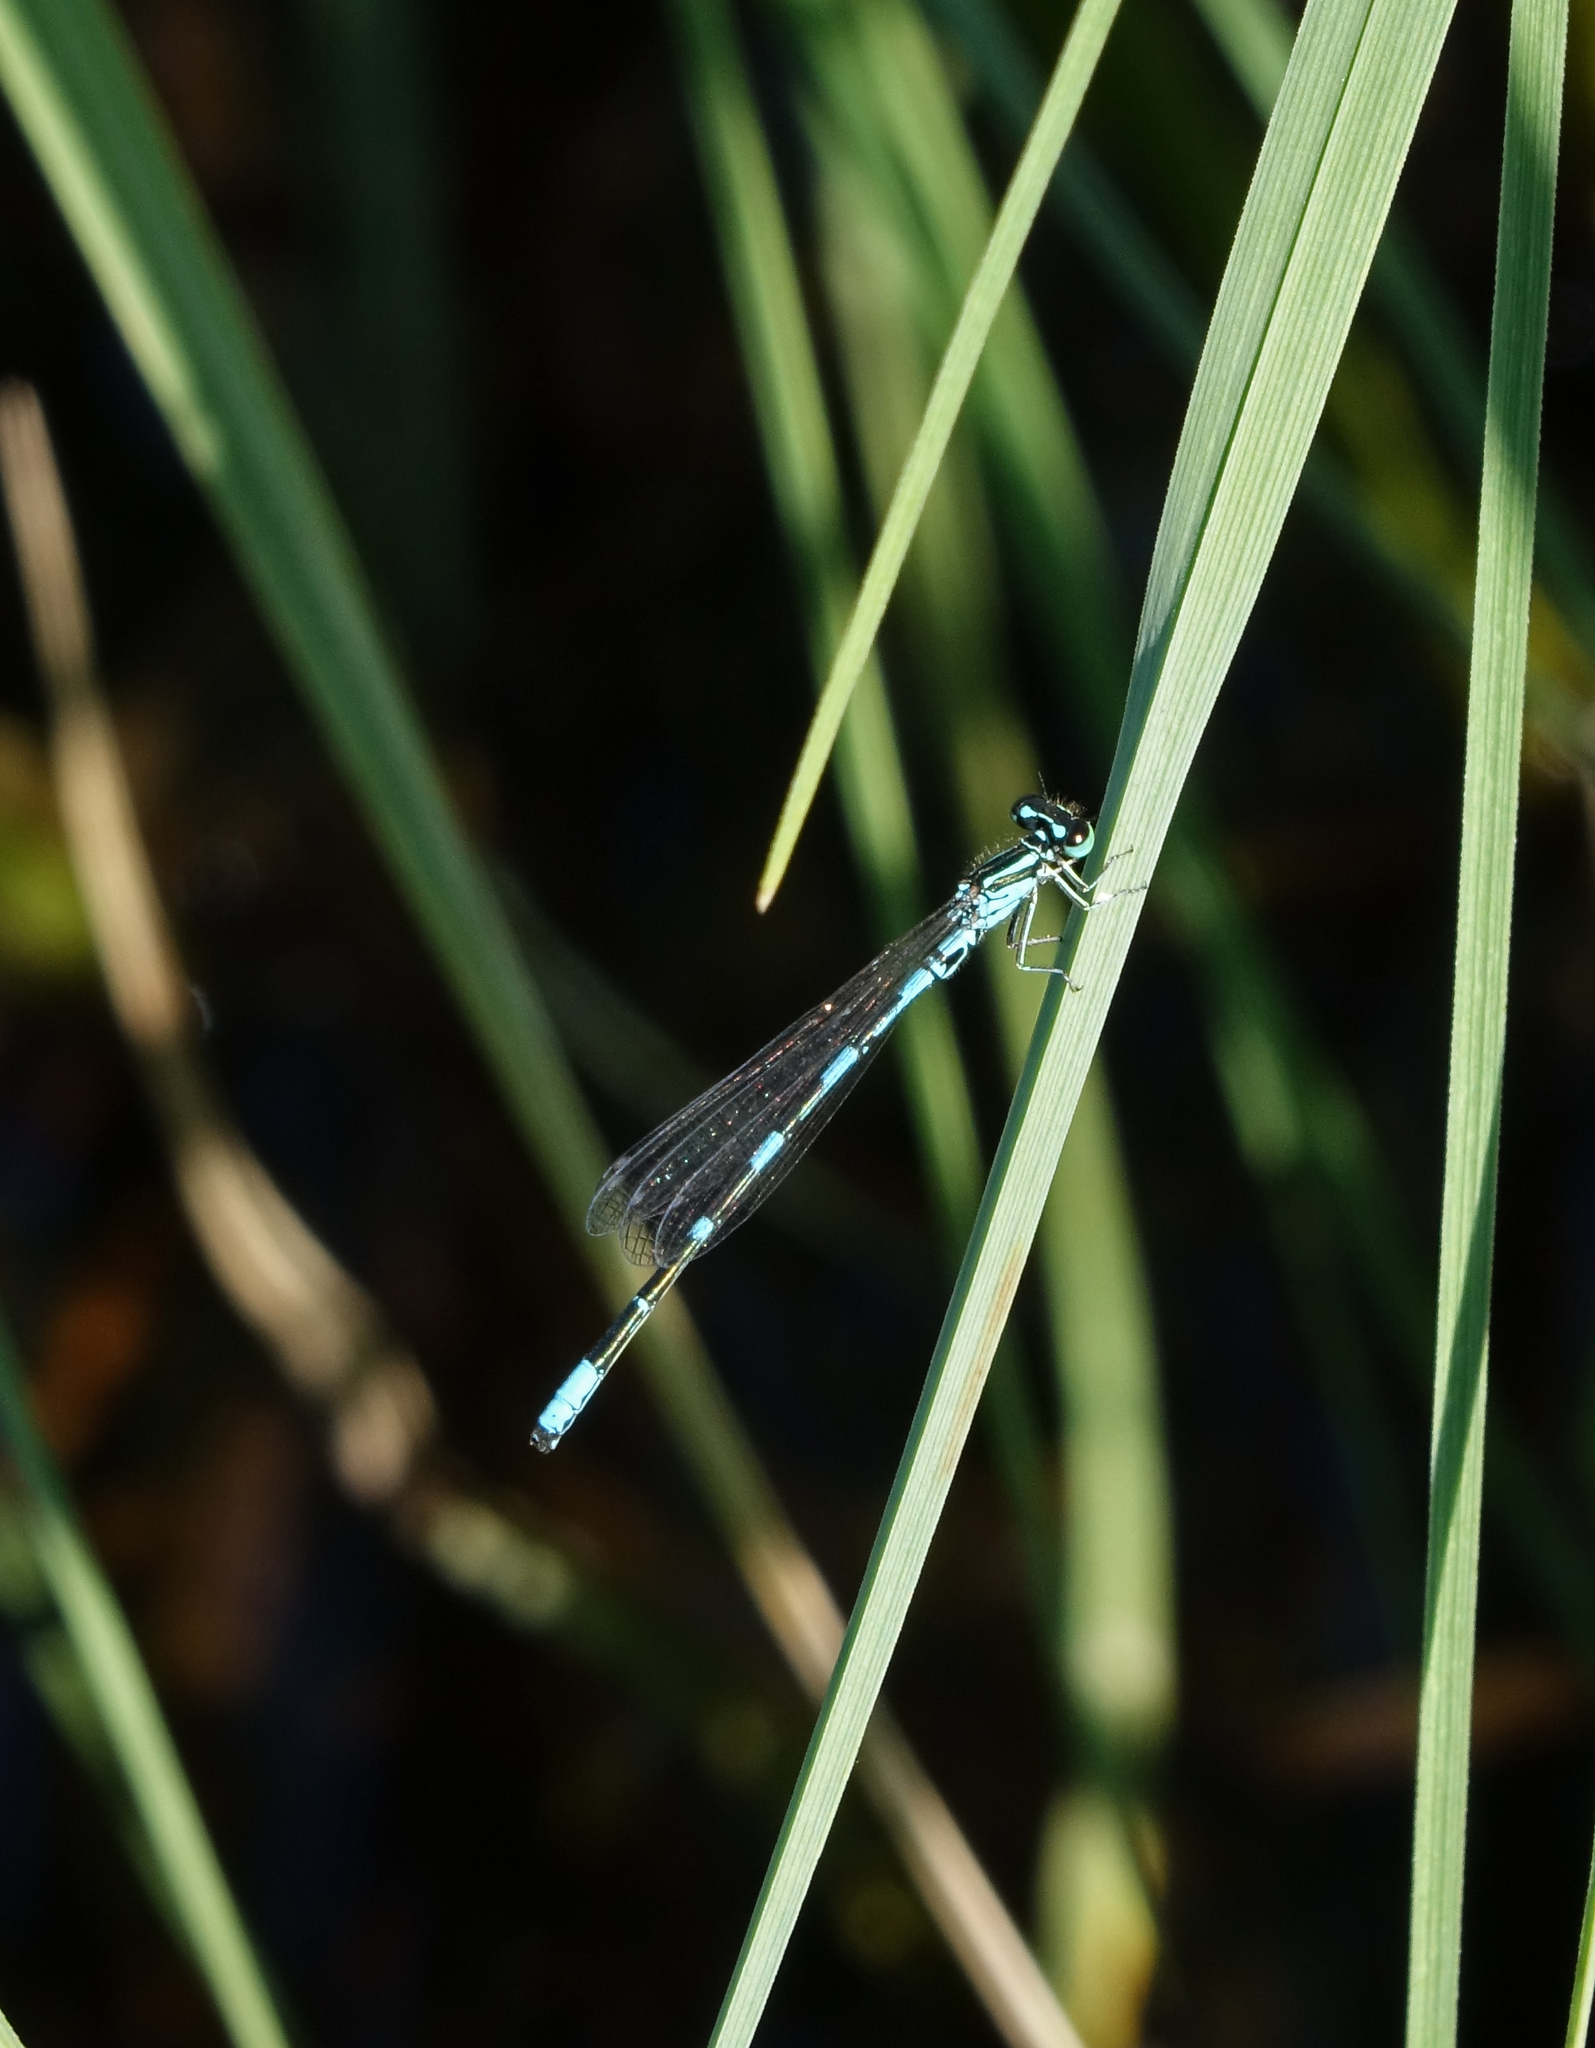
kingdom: Animalia
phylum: Arthropoda
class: Insecta
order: Odonata
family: Coenagrionidae
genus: Coenagrion
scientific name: Coenagrion johanssoni
